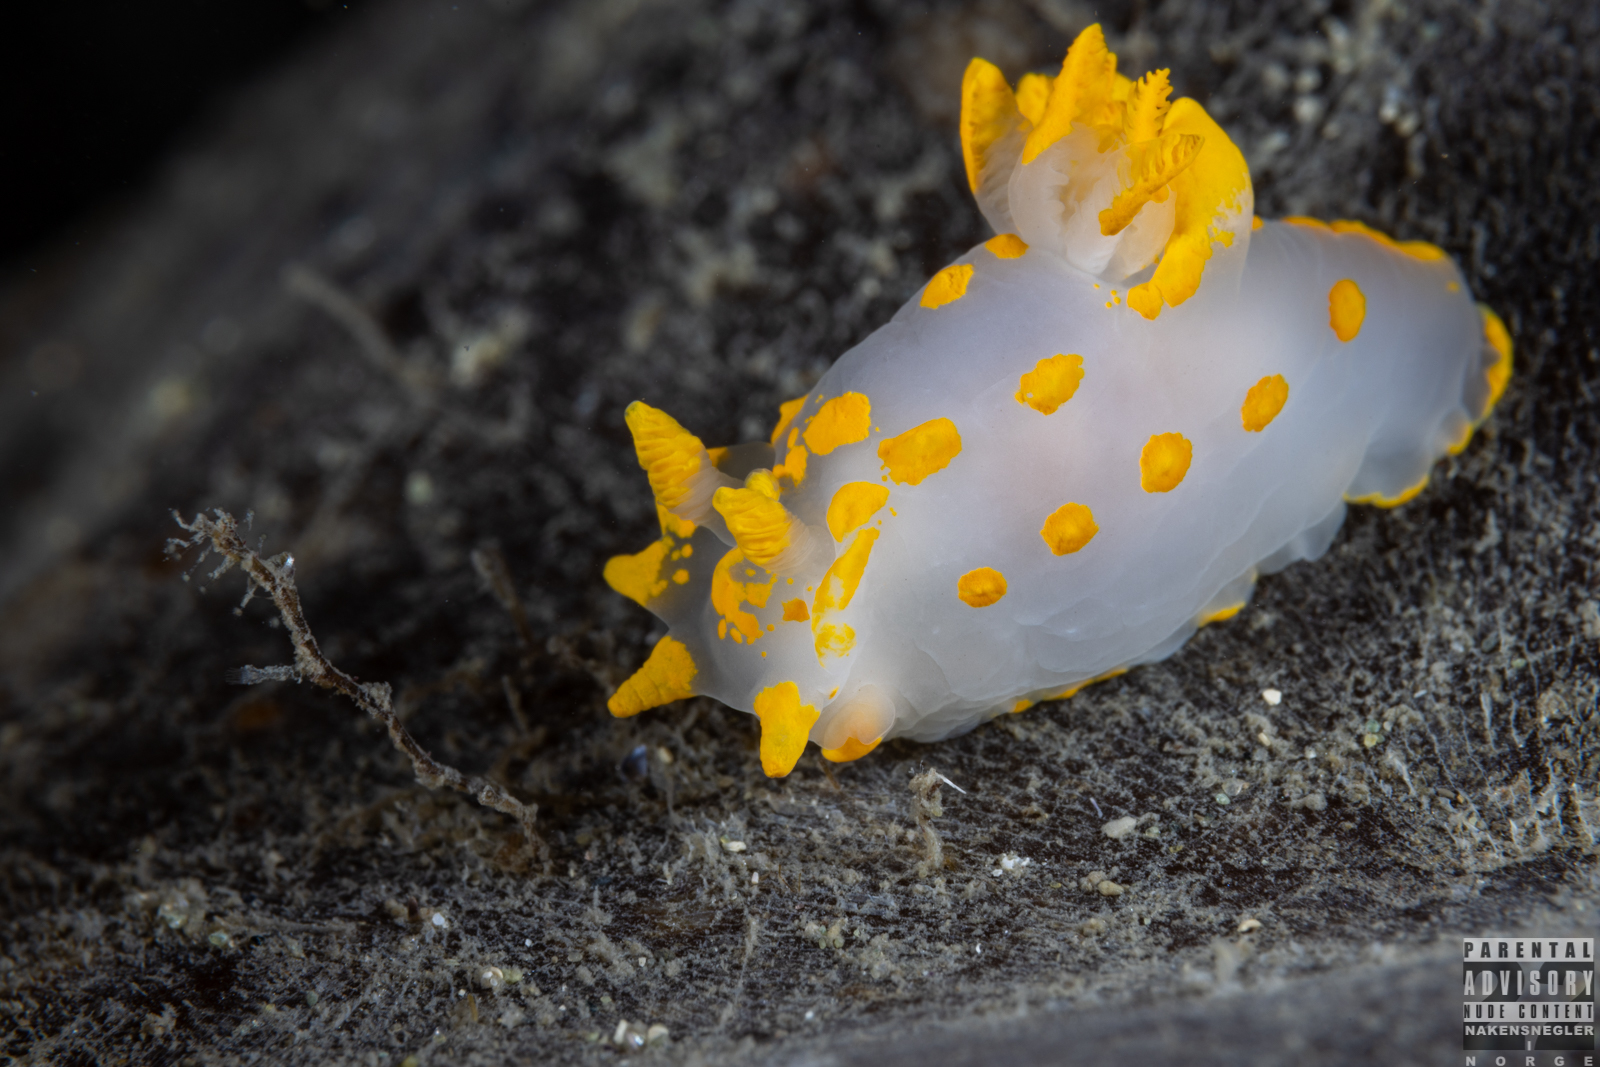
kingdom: Animalia
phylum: Mollusca
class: Gastropoda
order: Nudibranchia
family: Polyceridae
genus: Polycera
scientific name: Polycera quadrilineata
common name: Four-striped polycera
